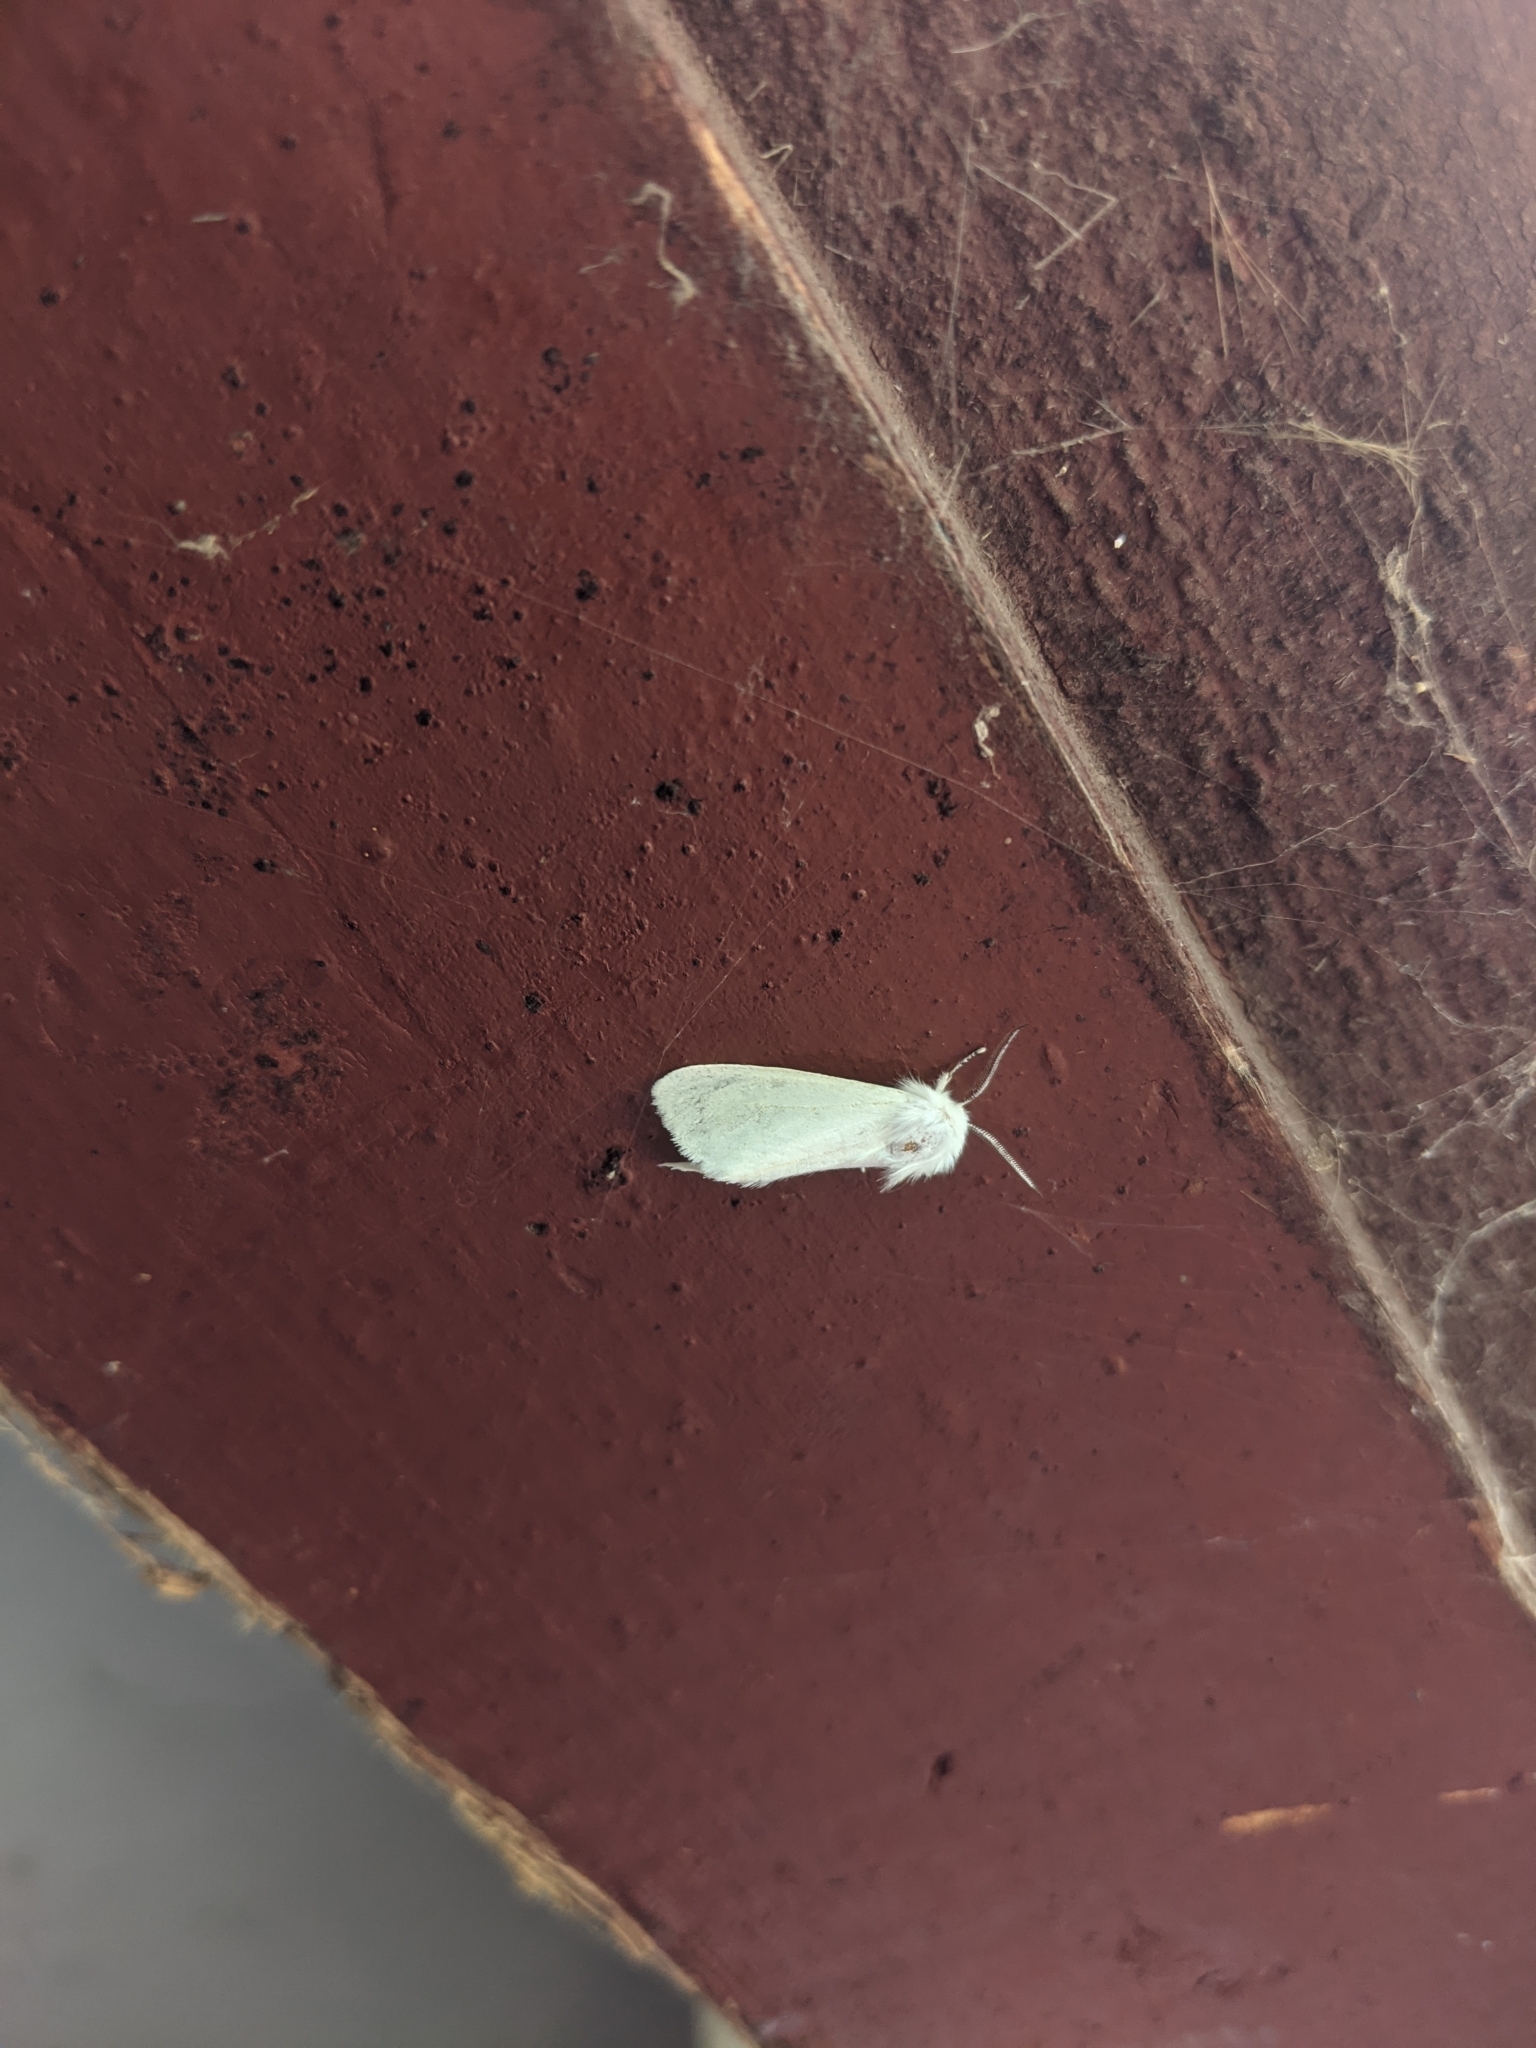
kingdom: Animalia
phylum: Arthropoda
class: Insecta
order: Lepidoptera
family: Erebidae
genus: Hyphantria
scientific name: Hyphantria cunea
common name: American white moth
